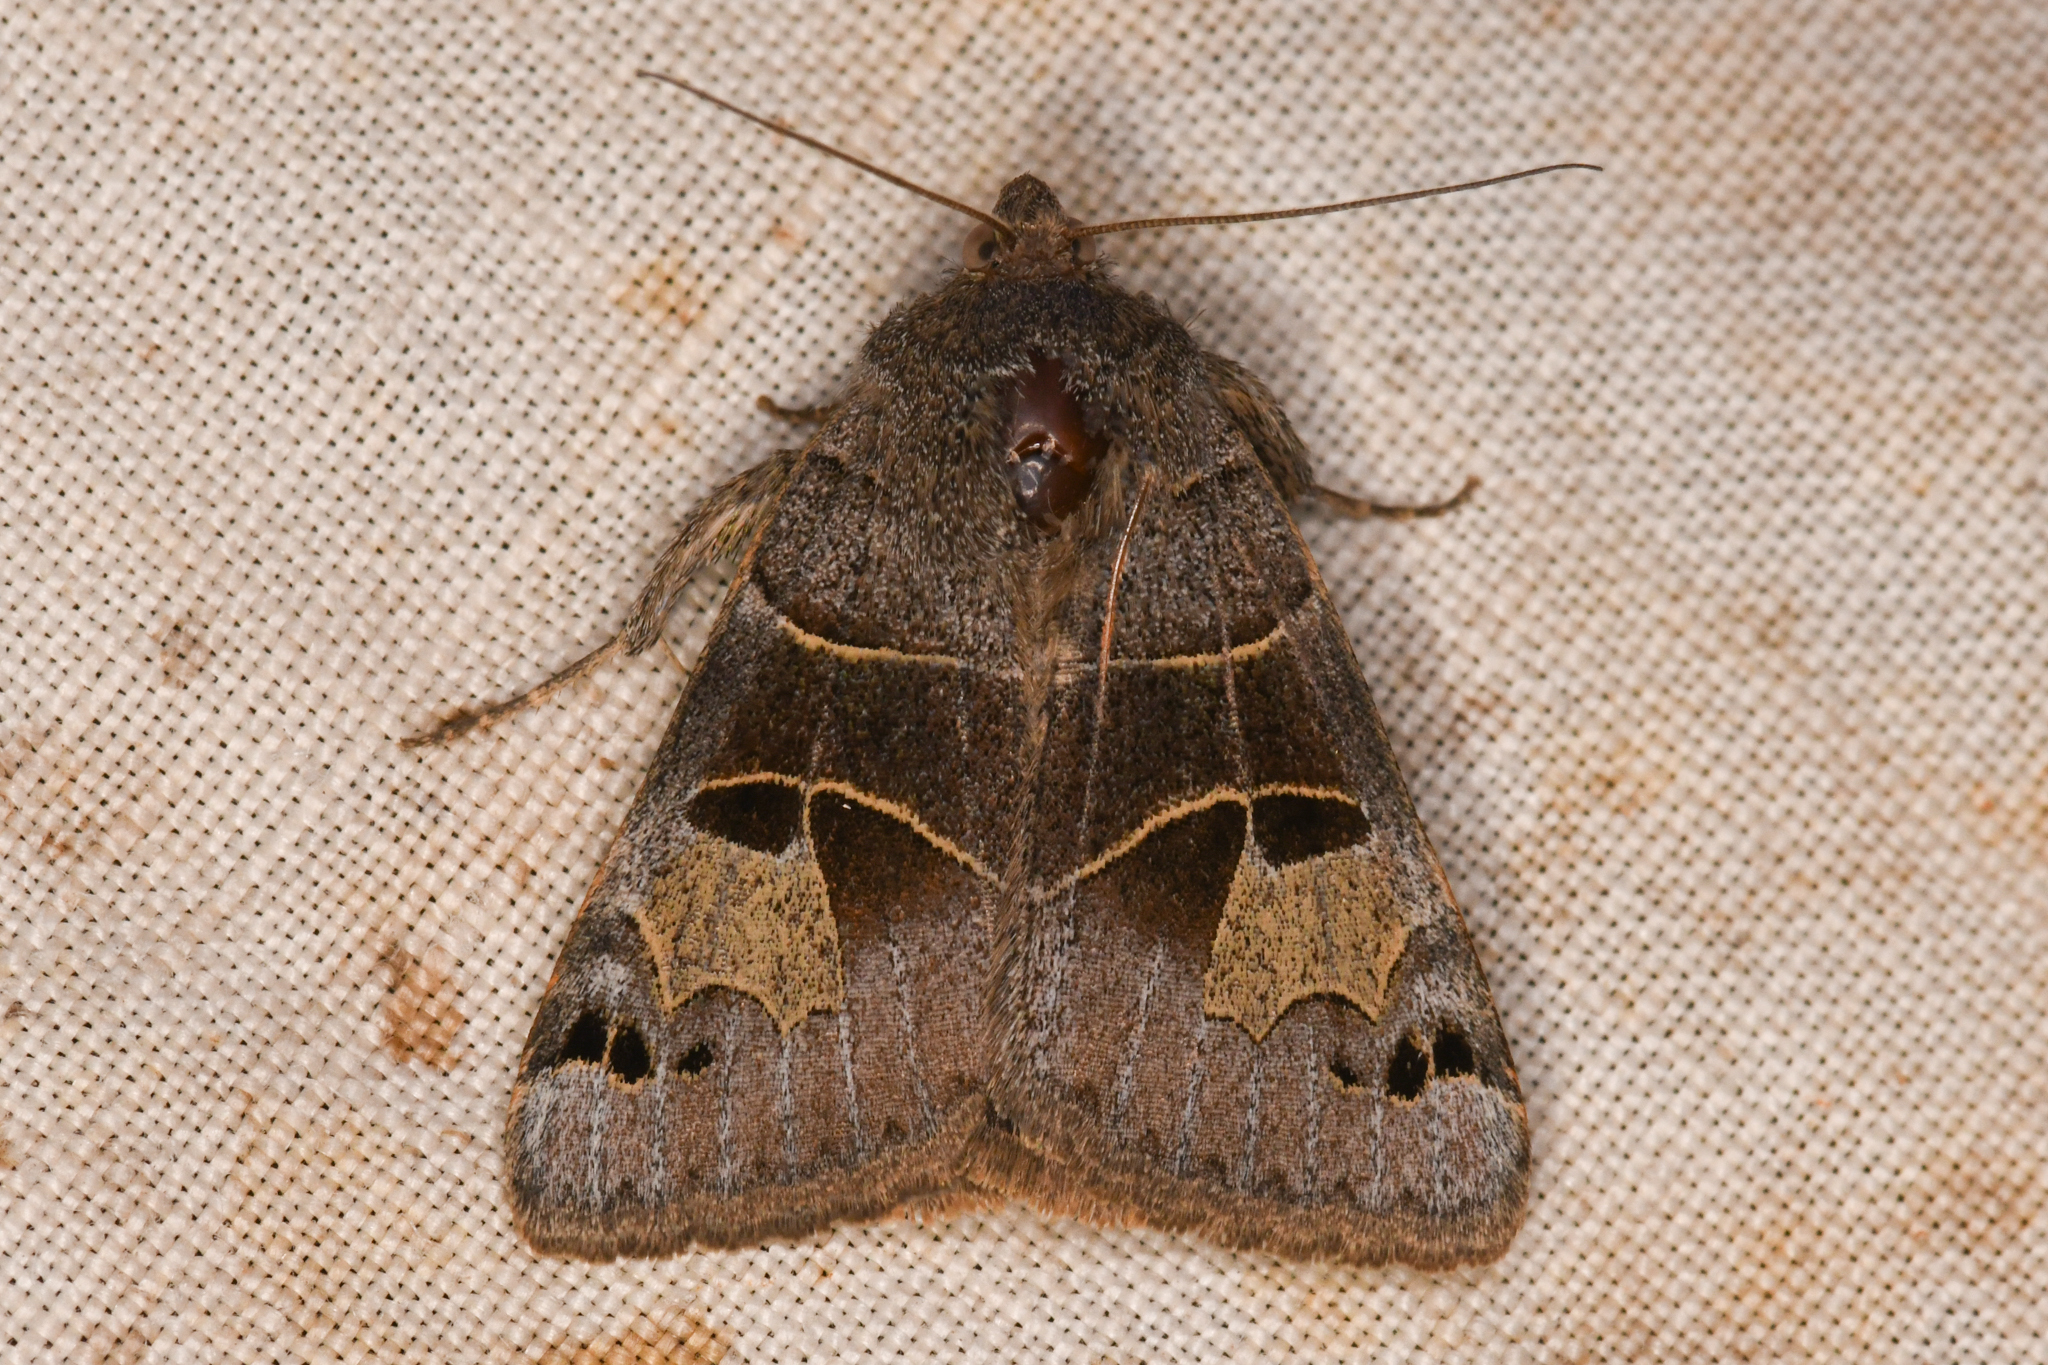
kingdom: Animalia
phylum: Arthropoda
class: Insecta
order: Lepidoptera
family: Erebidae
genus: Drasteria
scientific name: Drasteria edwardsii
